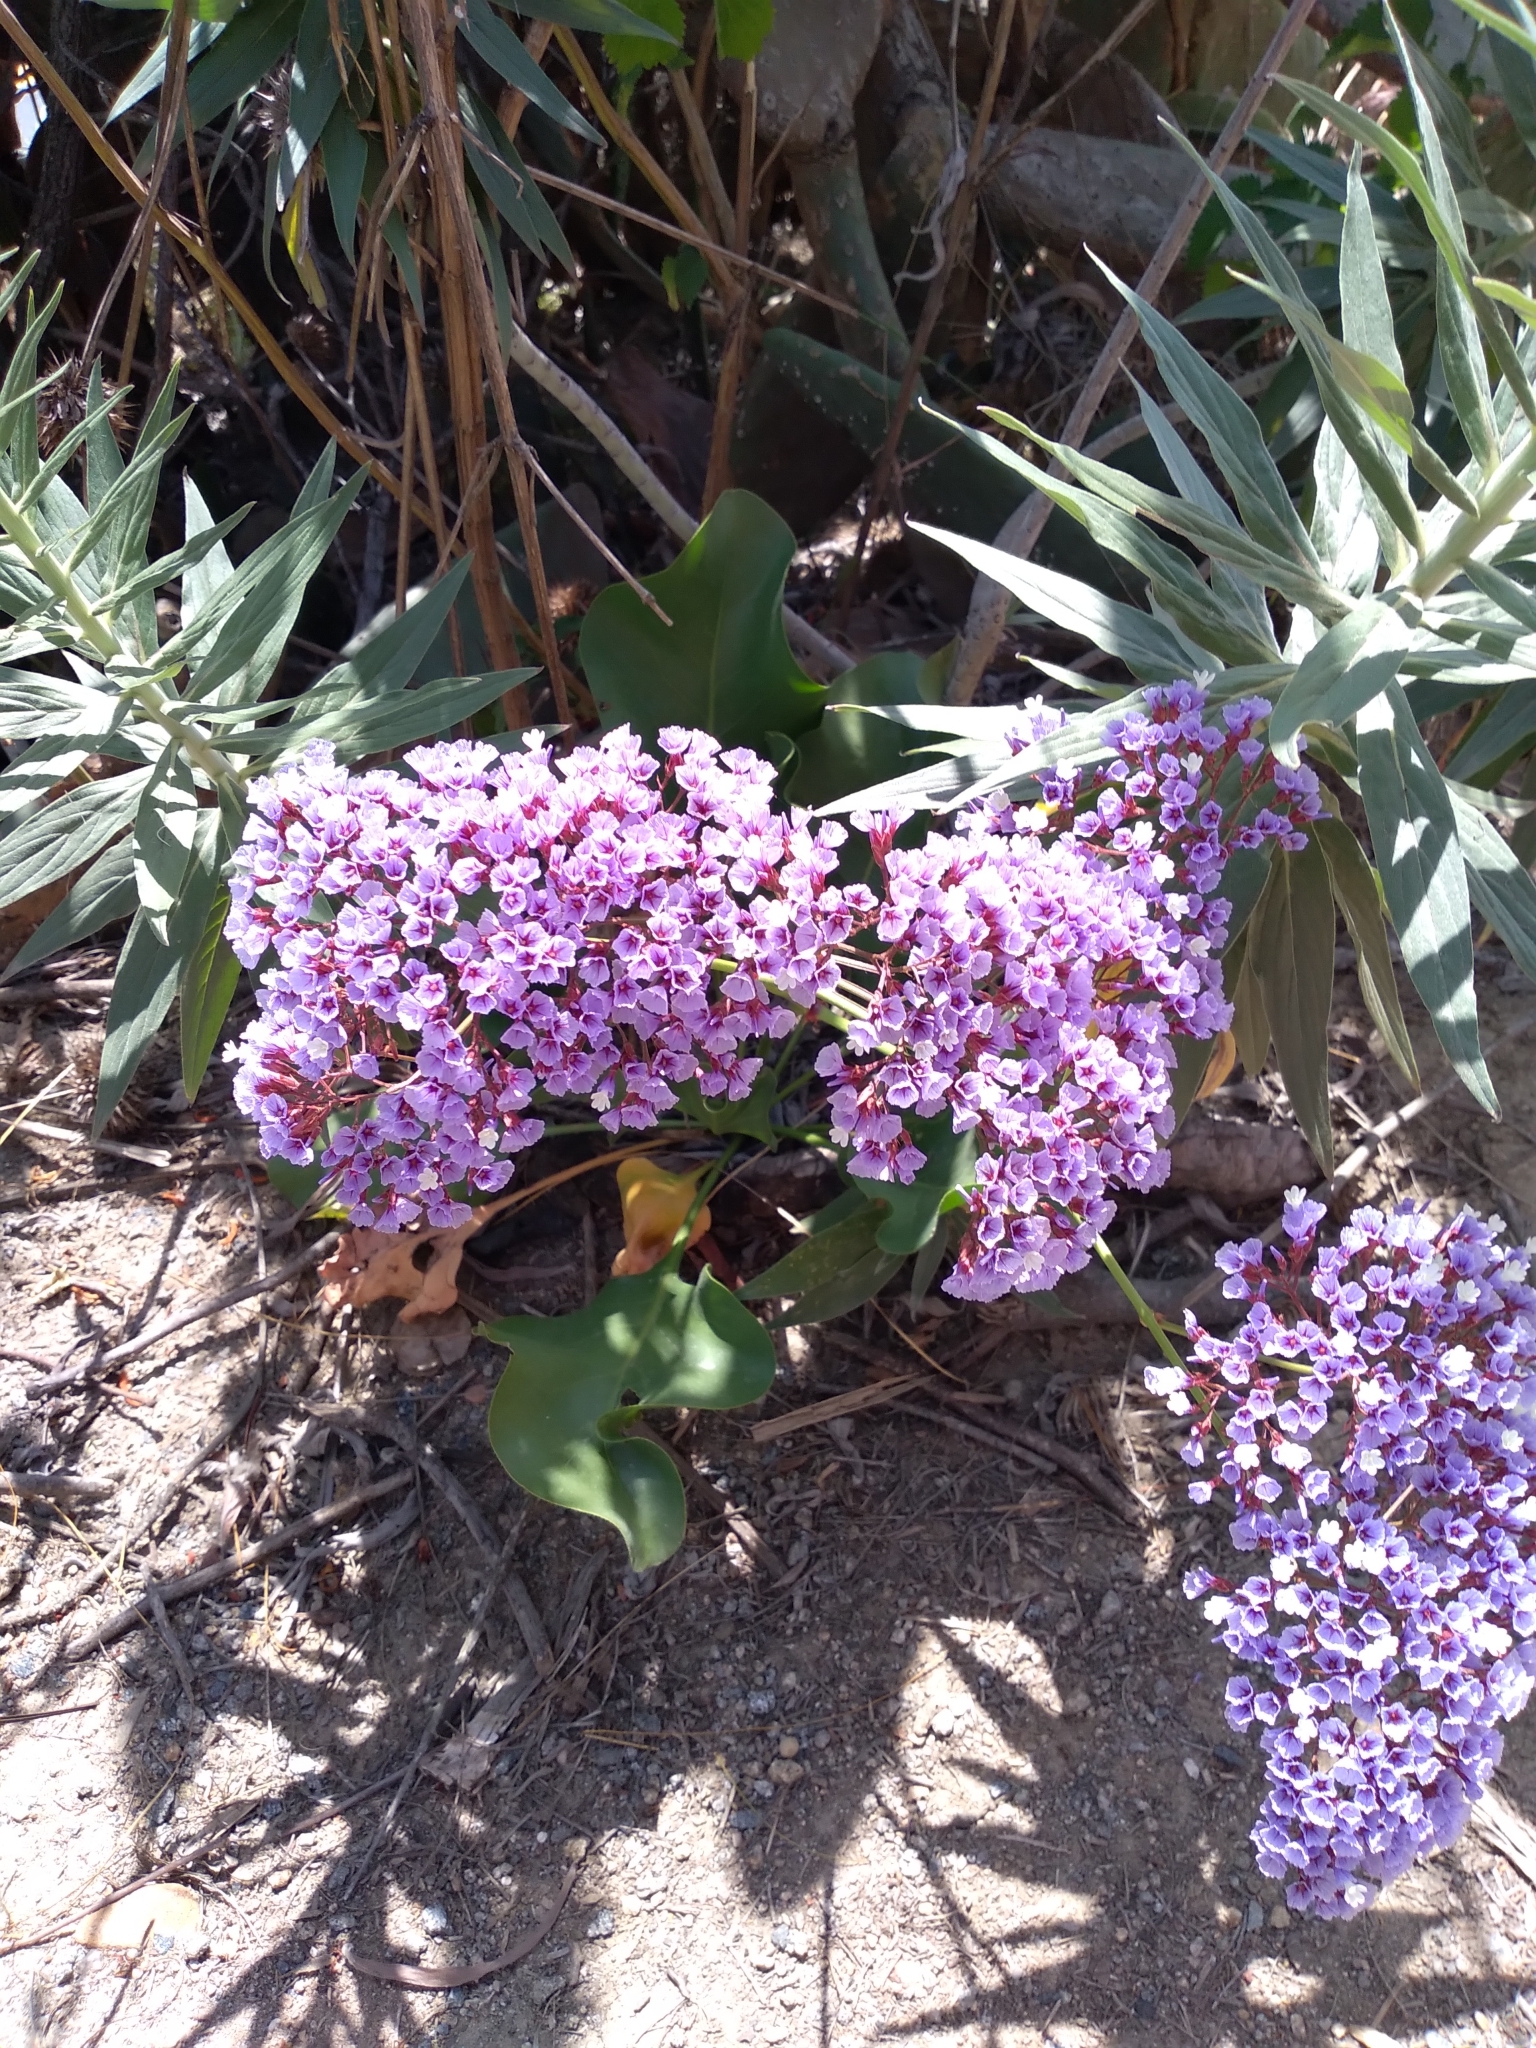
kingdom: Plantae
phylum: Tracheophyta
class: Magnoliopsida
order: Caryophyllales
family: Plumbaginaceae
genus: Limonium
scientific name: Limonium perezii
